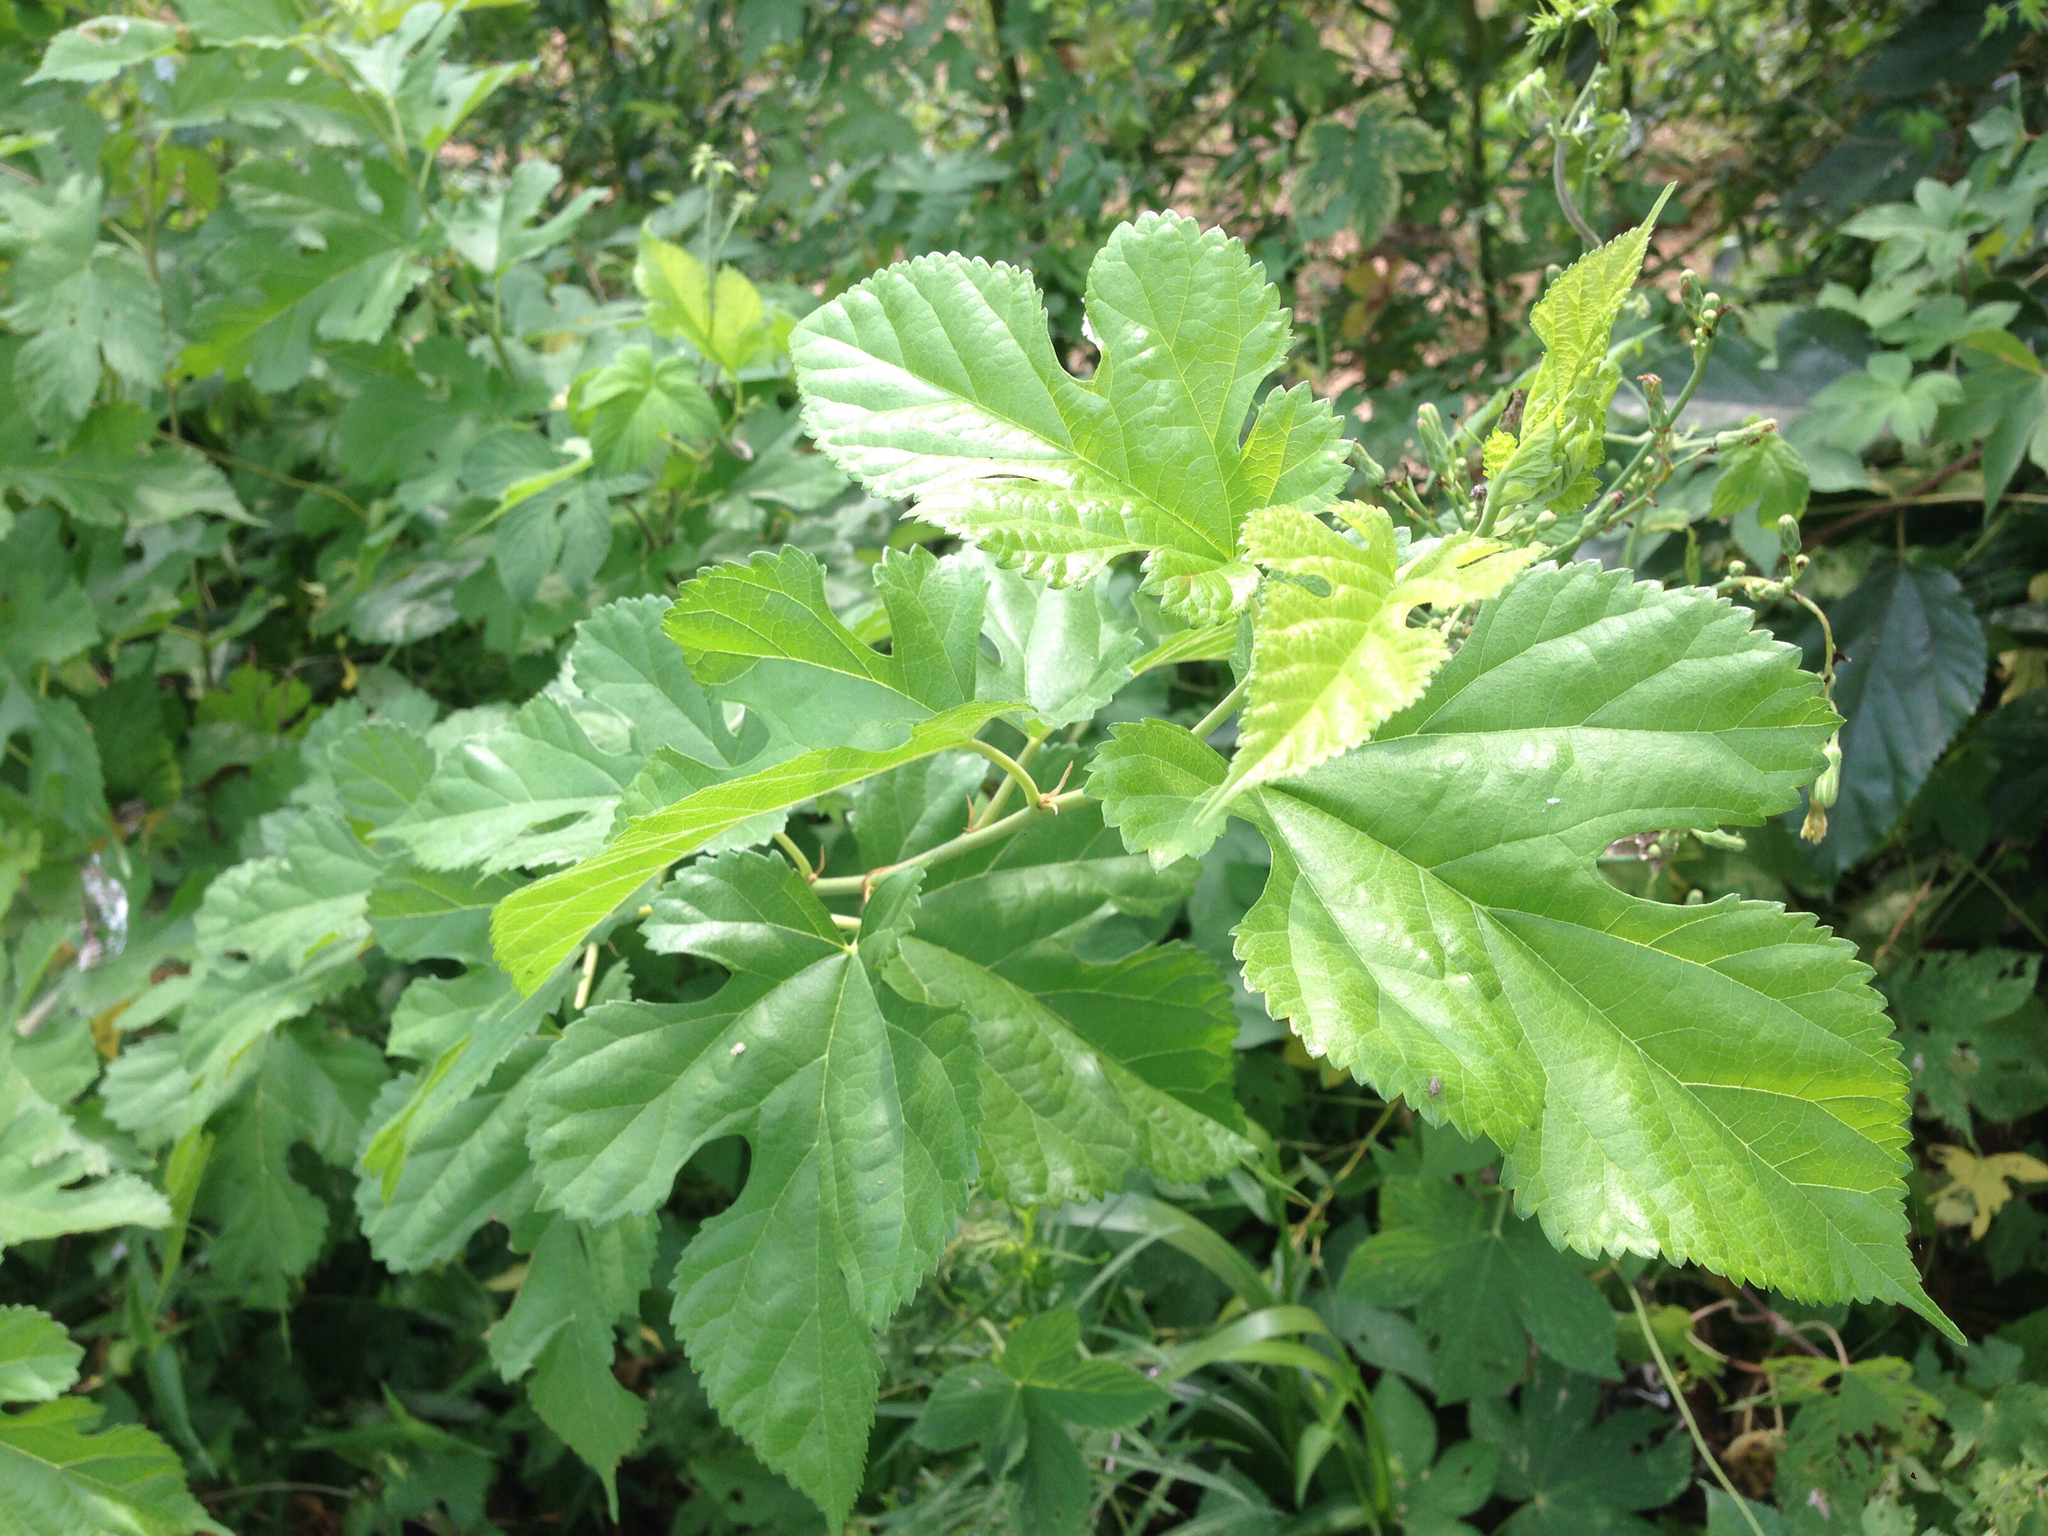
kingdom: Plantae
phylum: Tracheophyta
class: Magnoliopsida
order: Rosales
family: Moraceae
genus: Morus
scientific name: Morus alba
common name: White mulberry
